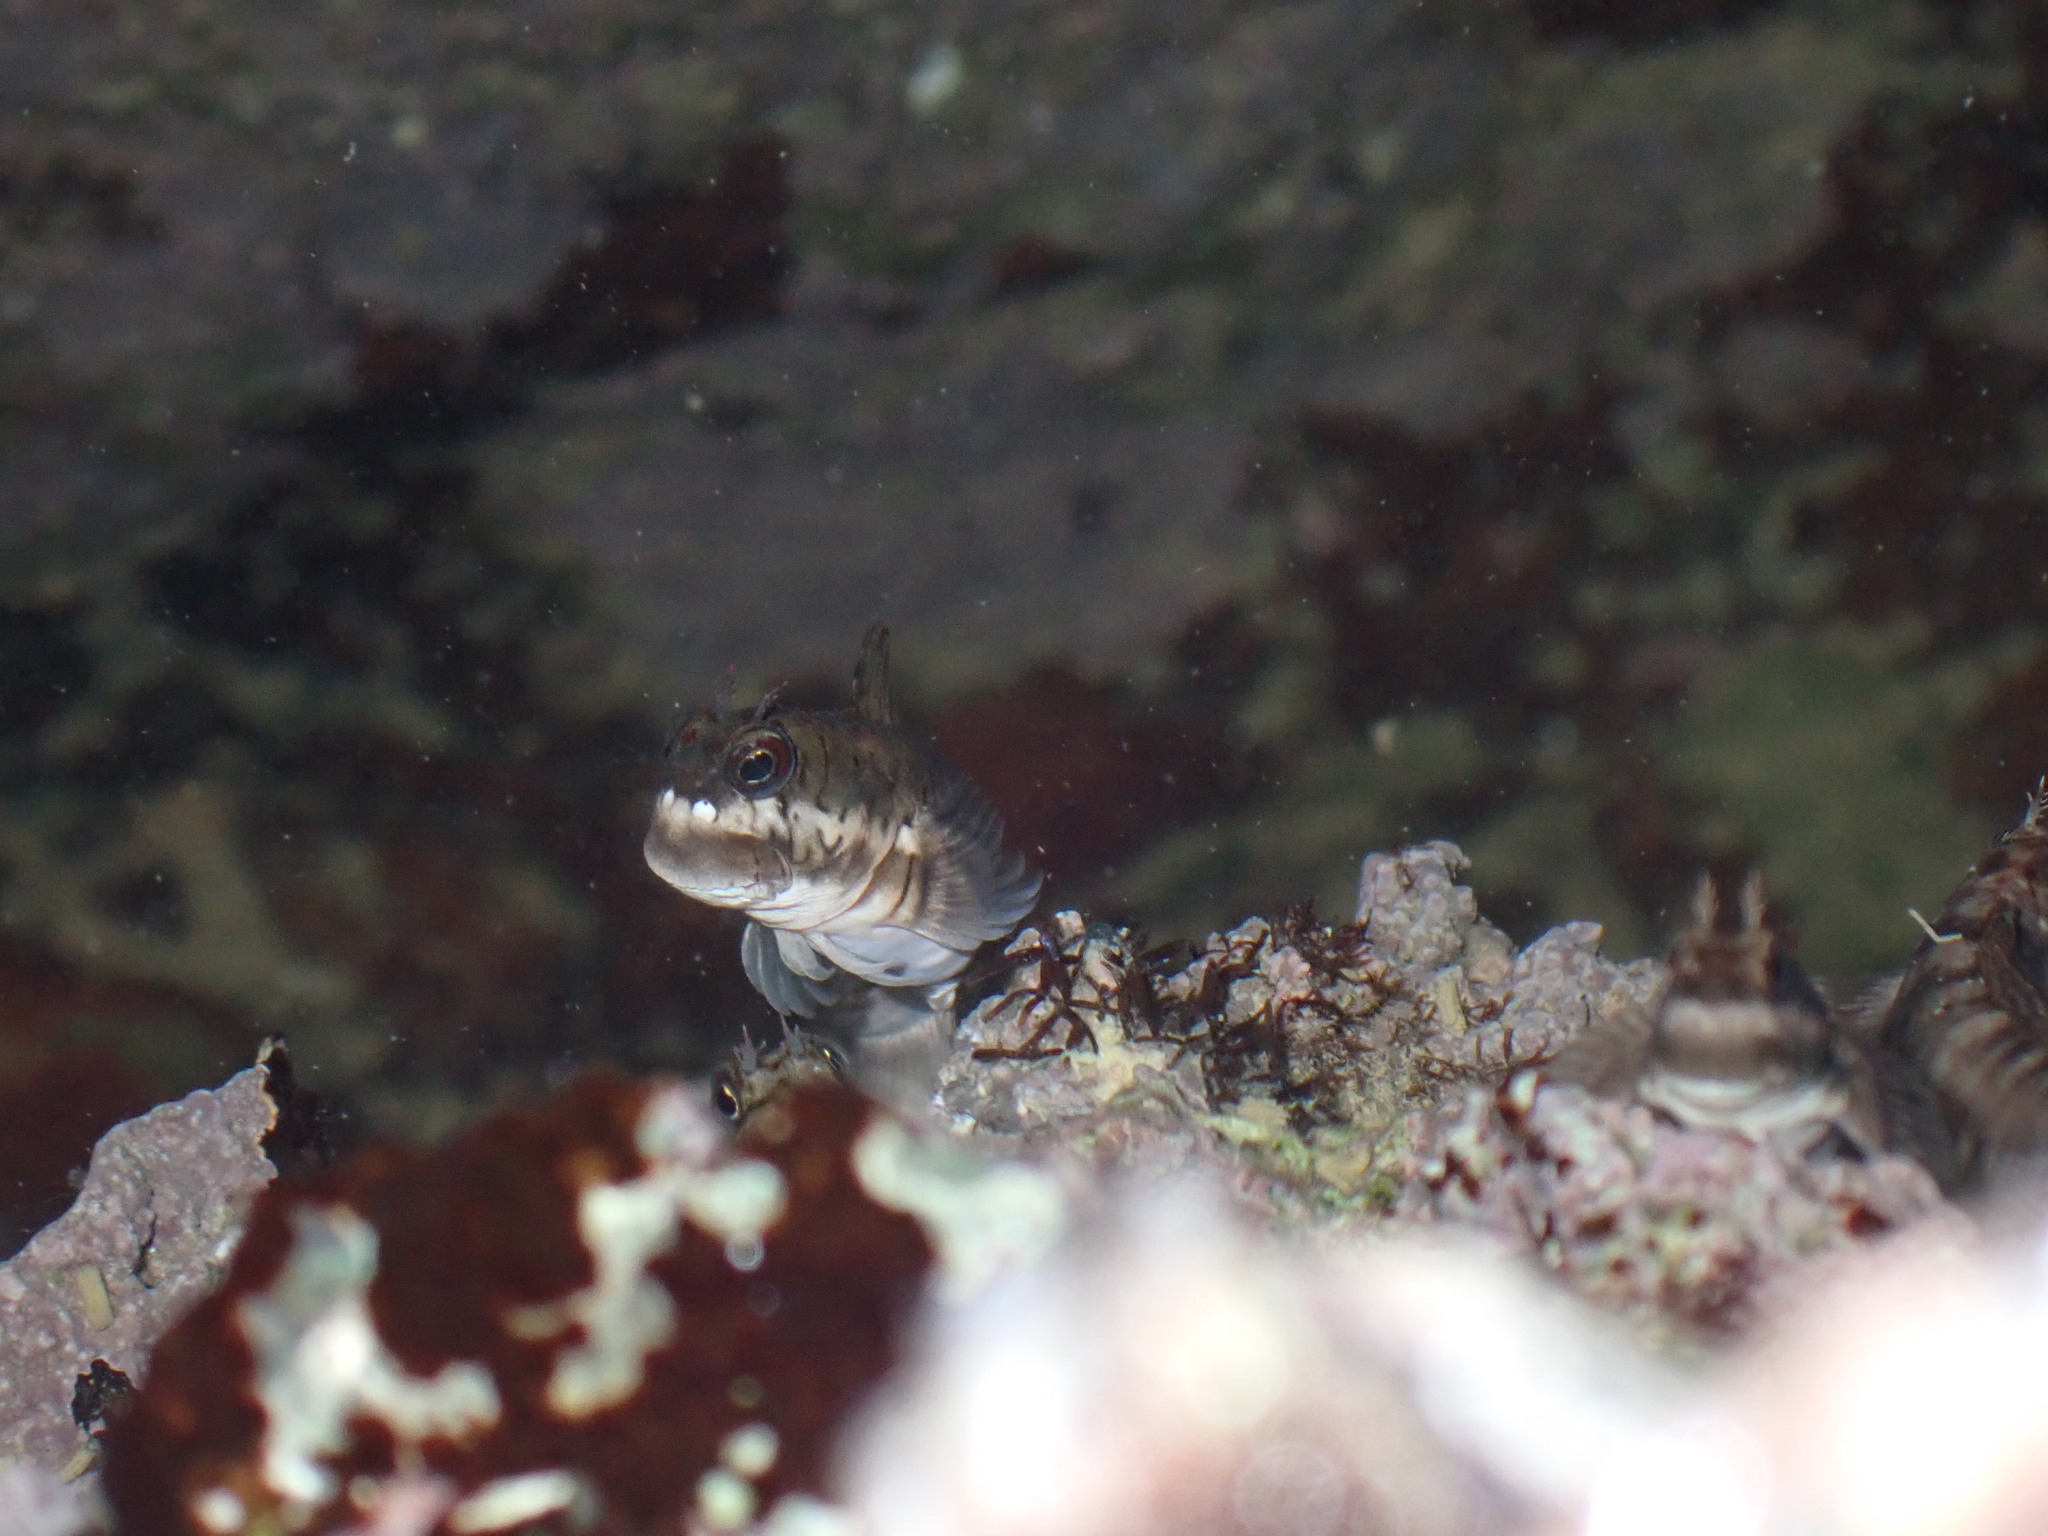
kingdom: Animalia
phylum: Chordata
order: Perciformes
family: Blenniidae
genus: Istiblennius
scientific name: Istiblennius lineatus
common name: Black-lined blenny
